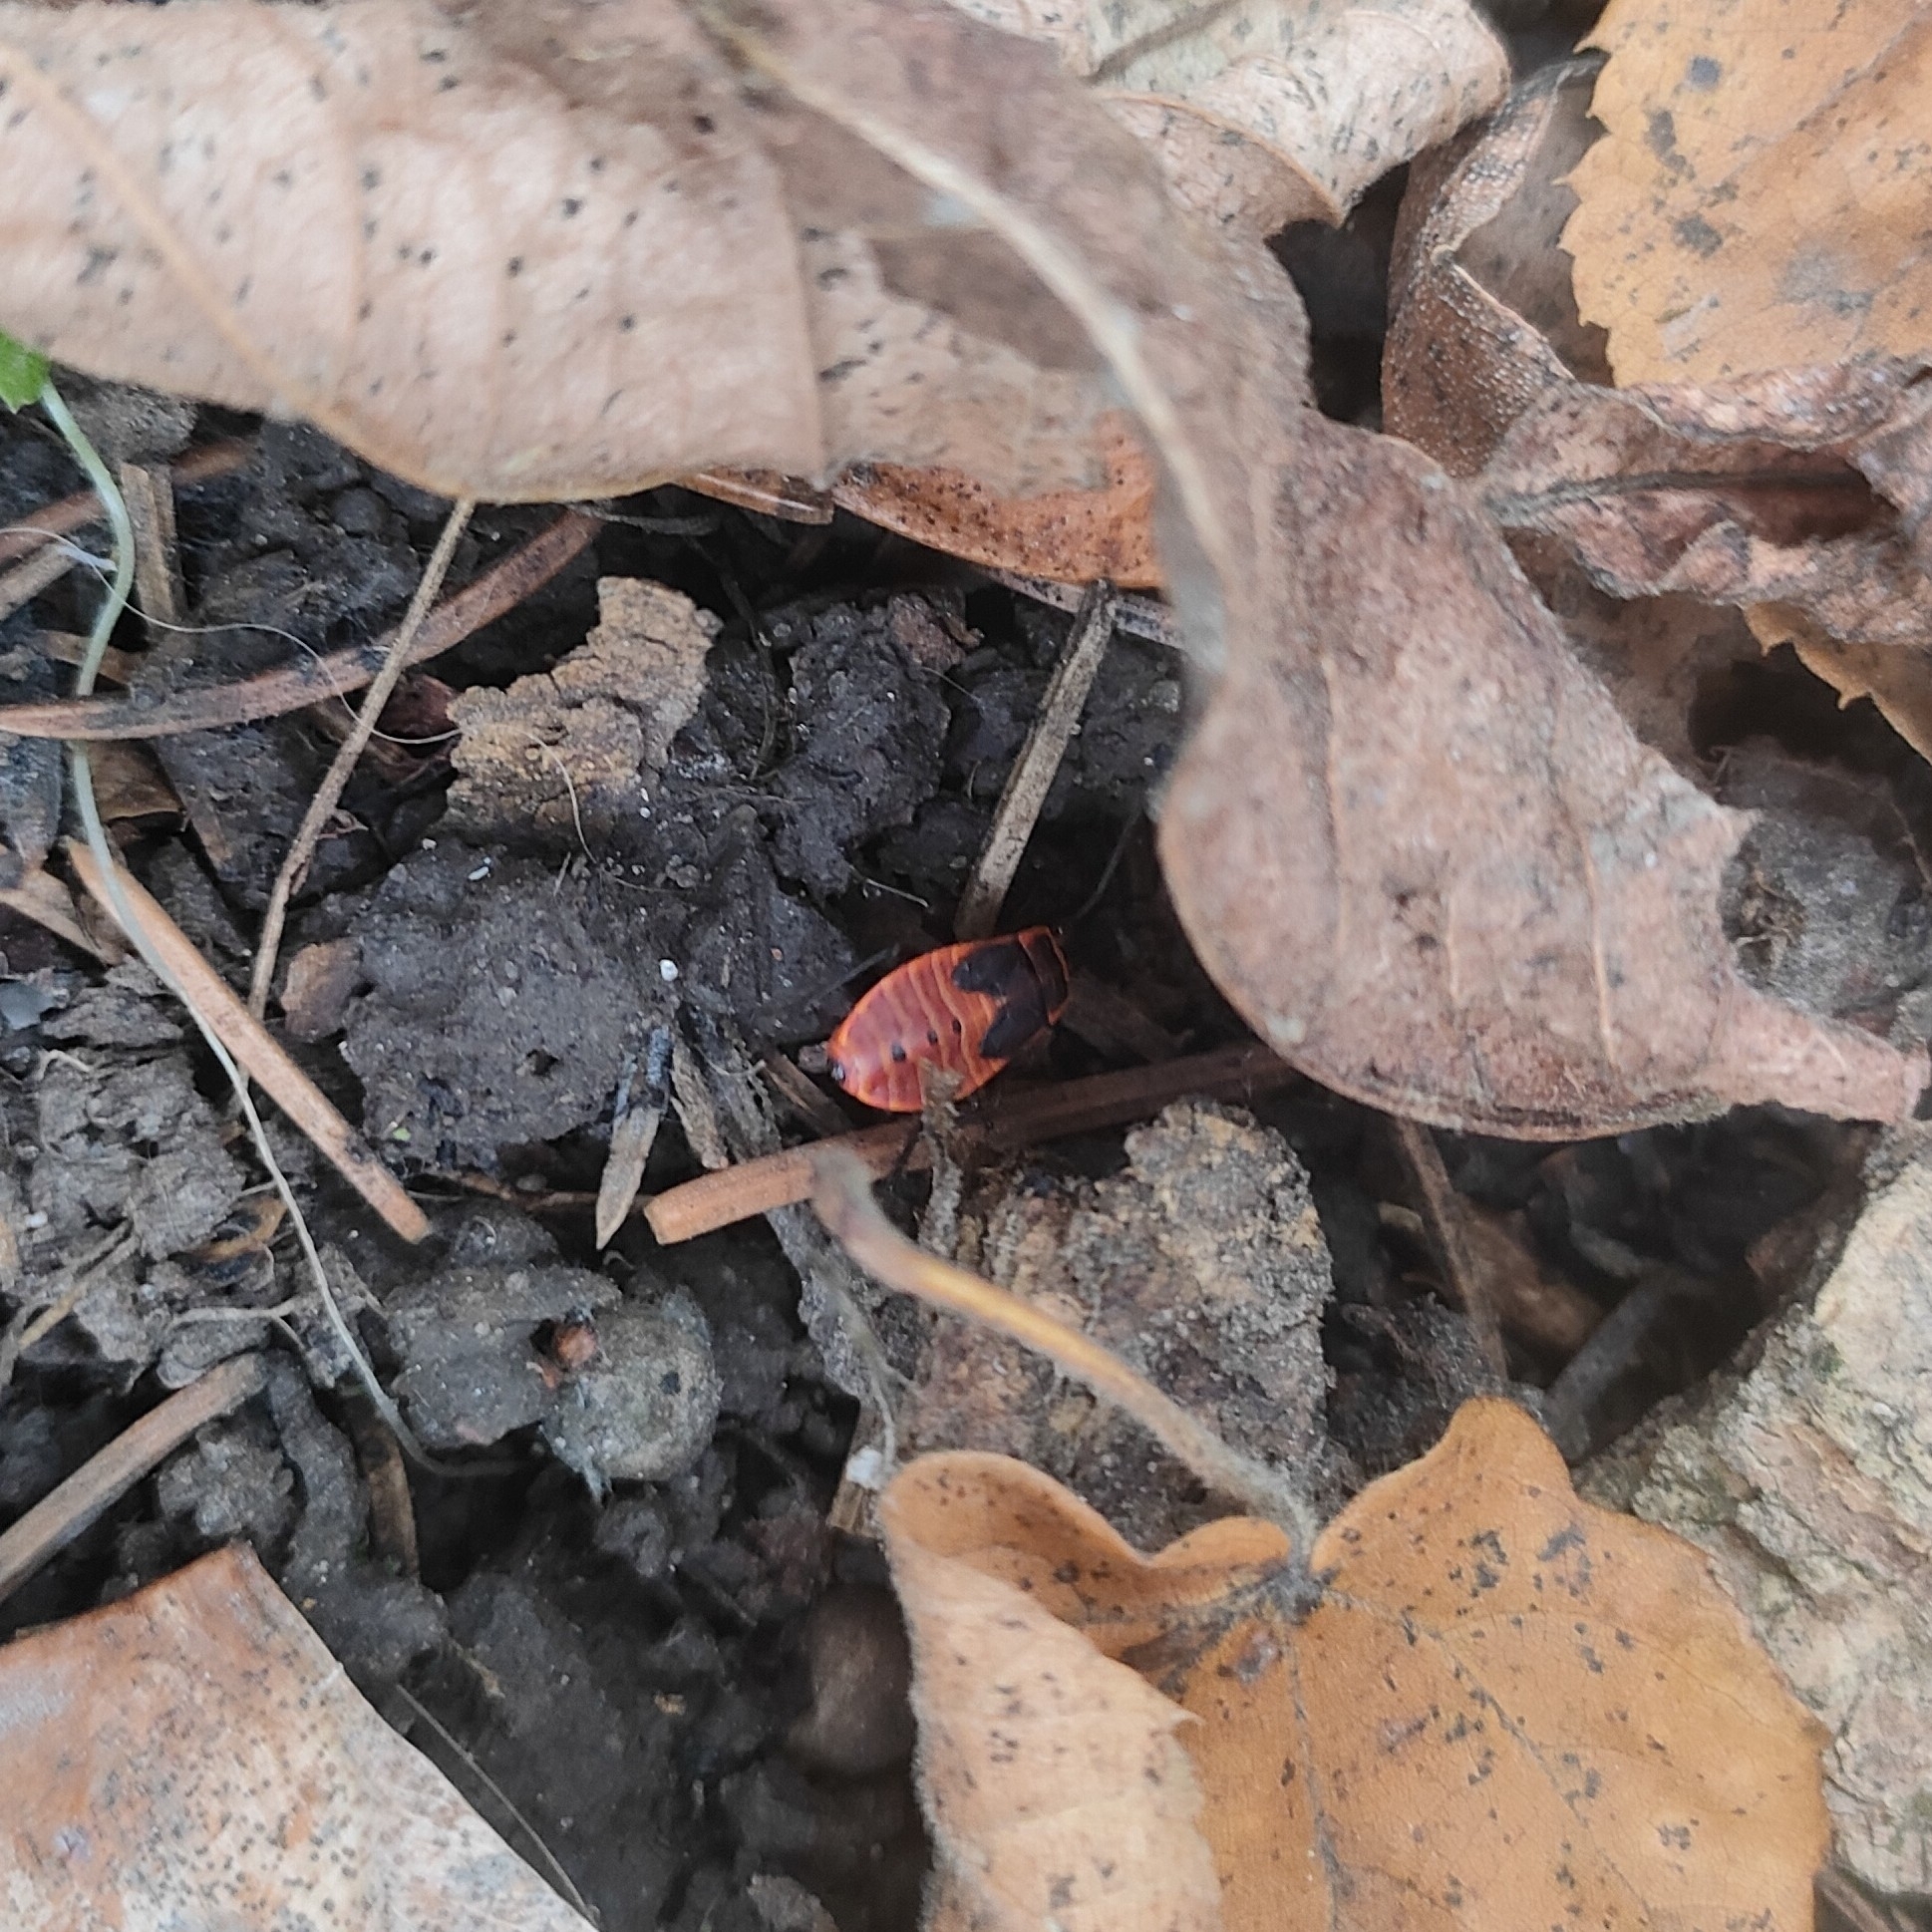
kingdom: Animalia
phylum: Arthropoda
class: Insecta
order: Hemiptera
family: Pyrrhocoridae
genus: Pyrrhocoris
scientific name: Pyrrhocoris apterus
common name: Firebug
